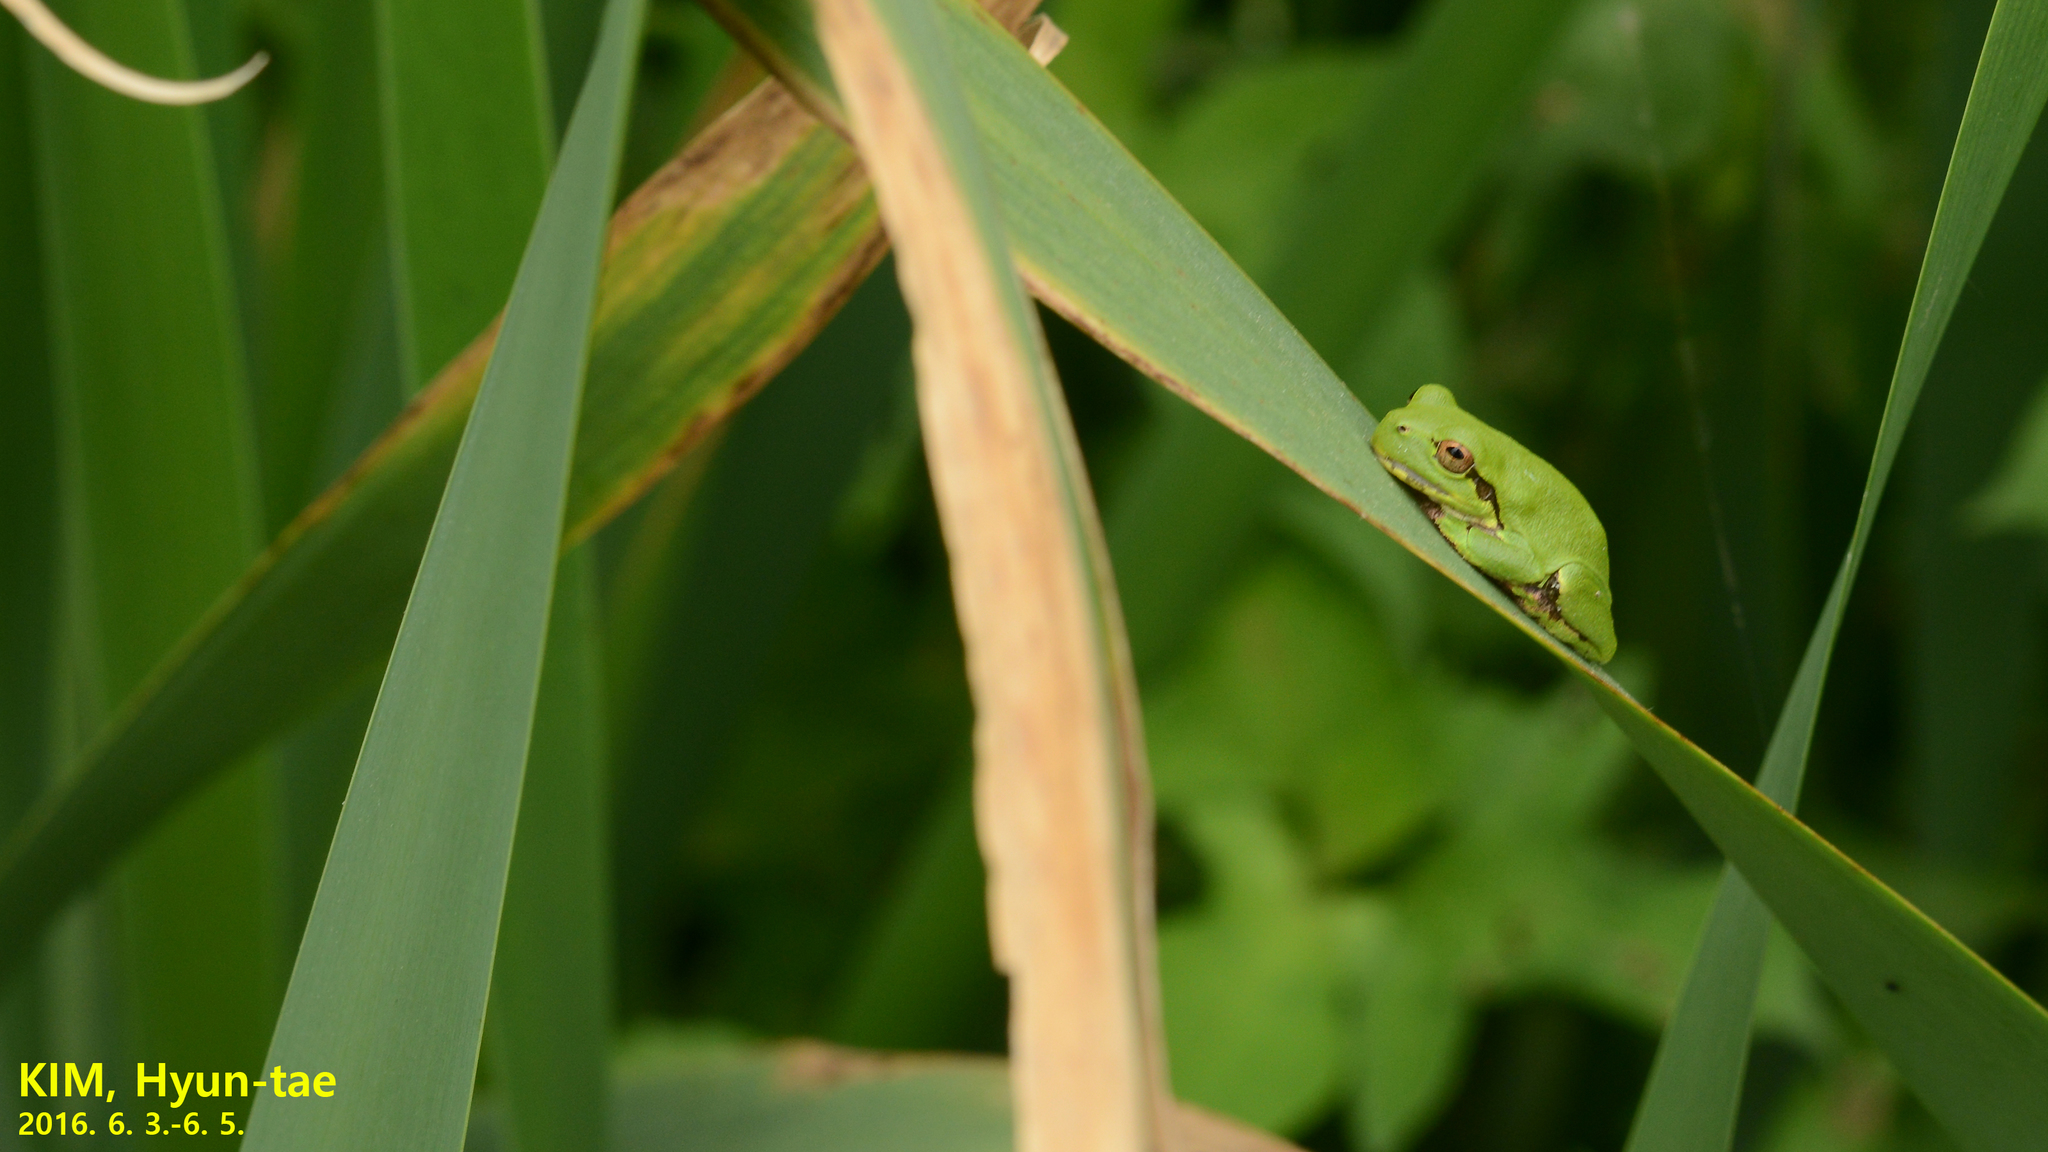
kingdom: Animalia
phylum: Chordata
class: Amphibia
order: Anura
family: Hylidae
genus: Dryophytes
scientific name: Dryophytes japonicus
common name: Japanese treefrog
